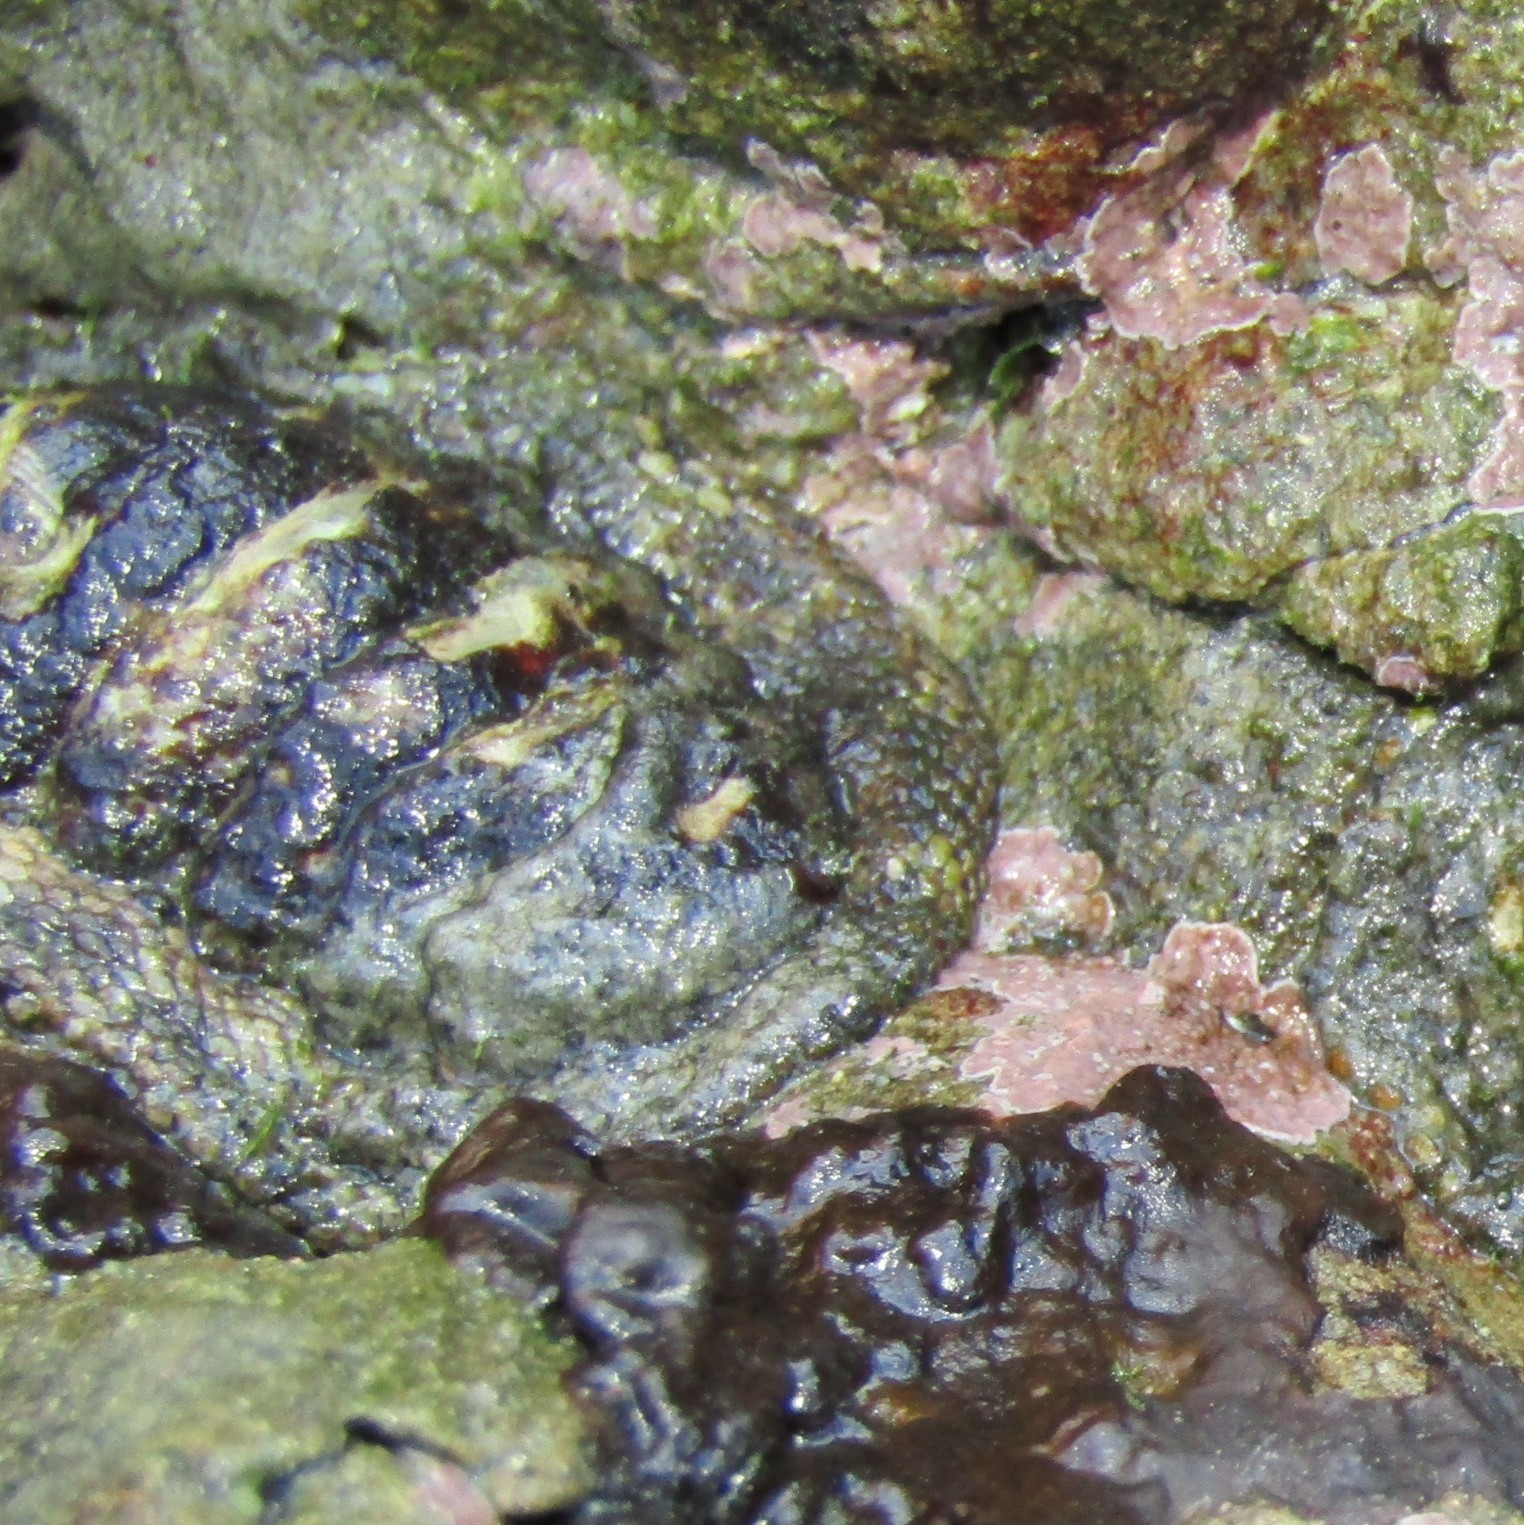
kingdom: Animalia
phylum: Mollusca
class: Polyplacophora
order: Chitonida
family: Chitonidae
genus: Sypharochiton
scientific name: Sypharochiton pelliserpentis
